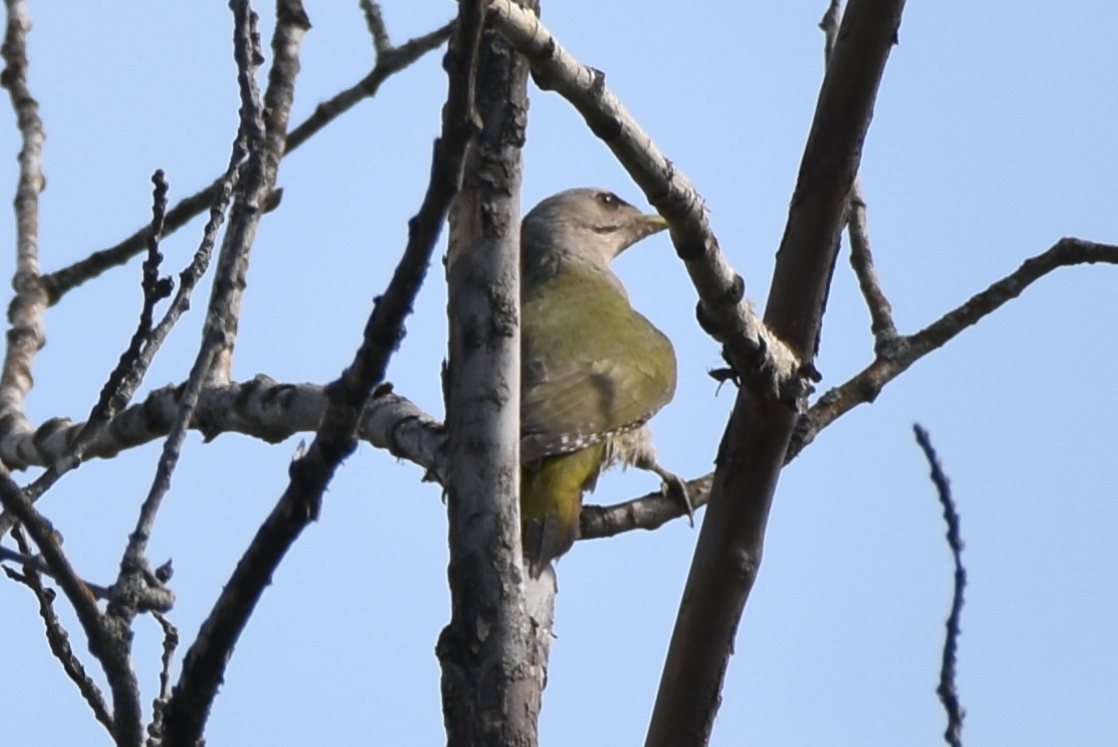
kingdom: Animalia
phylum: Chordata
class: Aves
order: Piciformes
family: Picidae
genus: Picus
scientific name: Picus canus
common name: Grey-headed woodpecker
